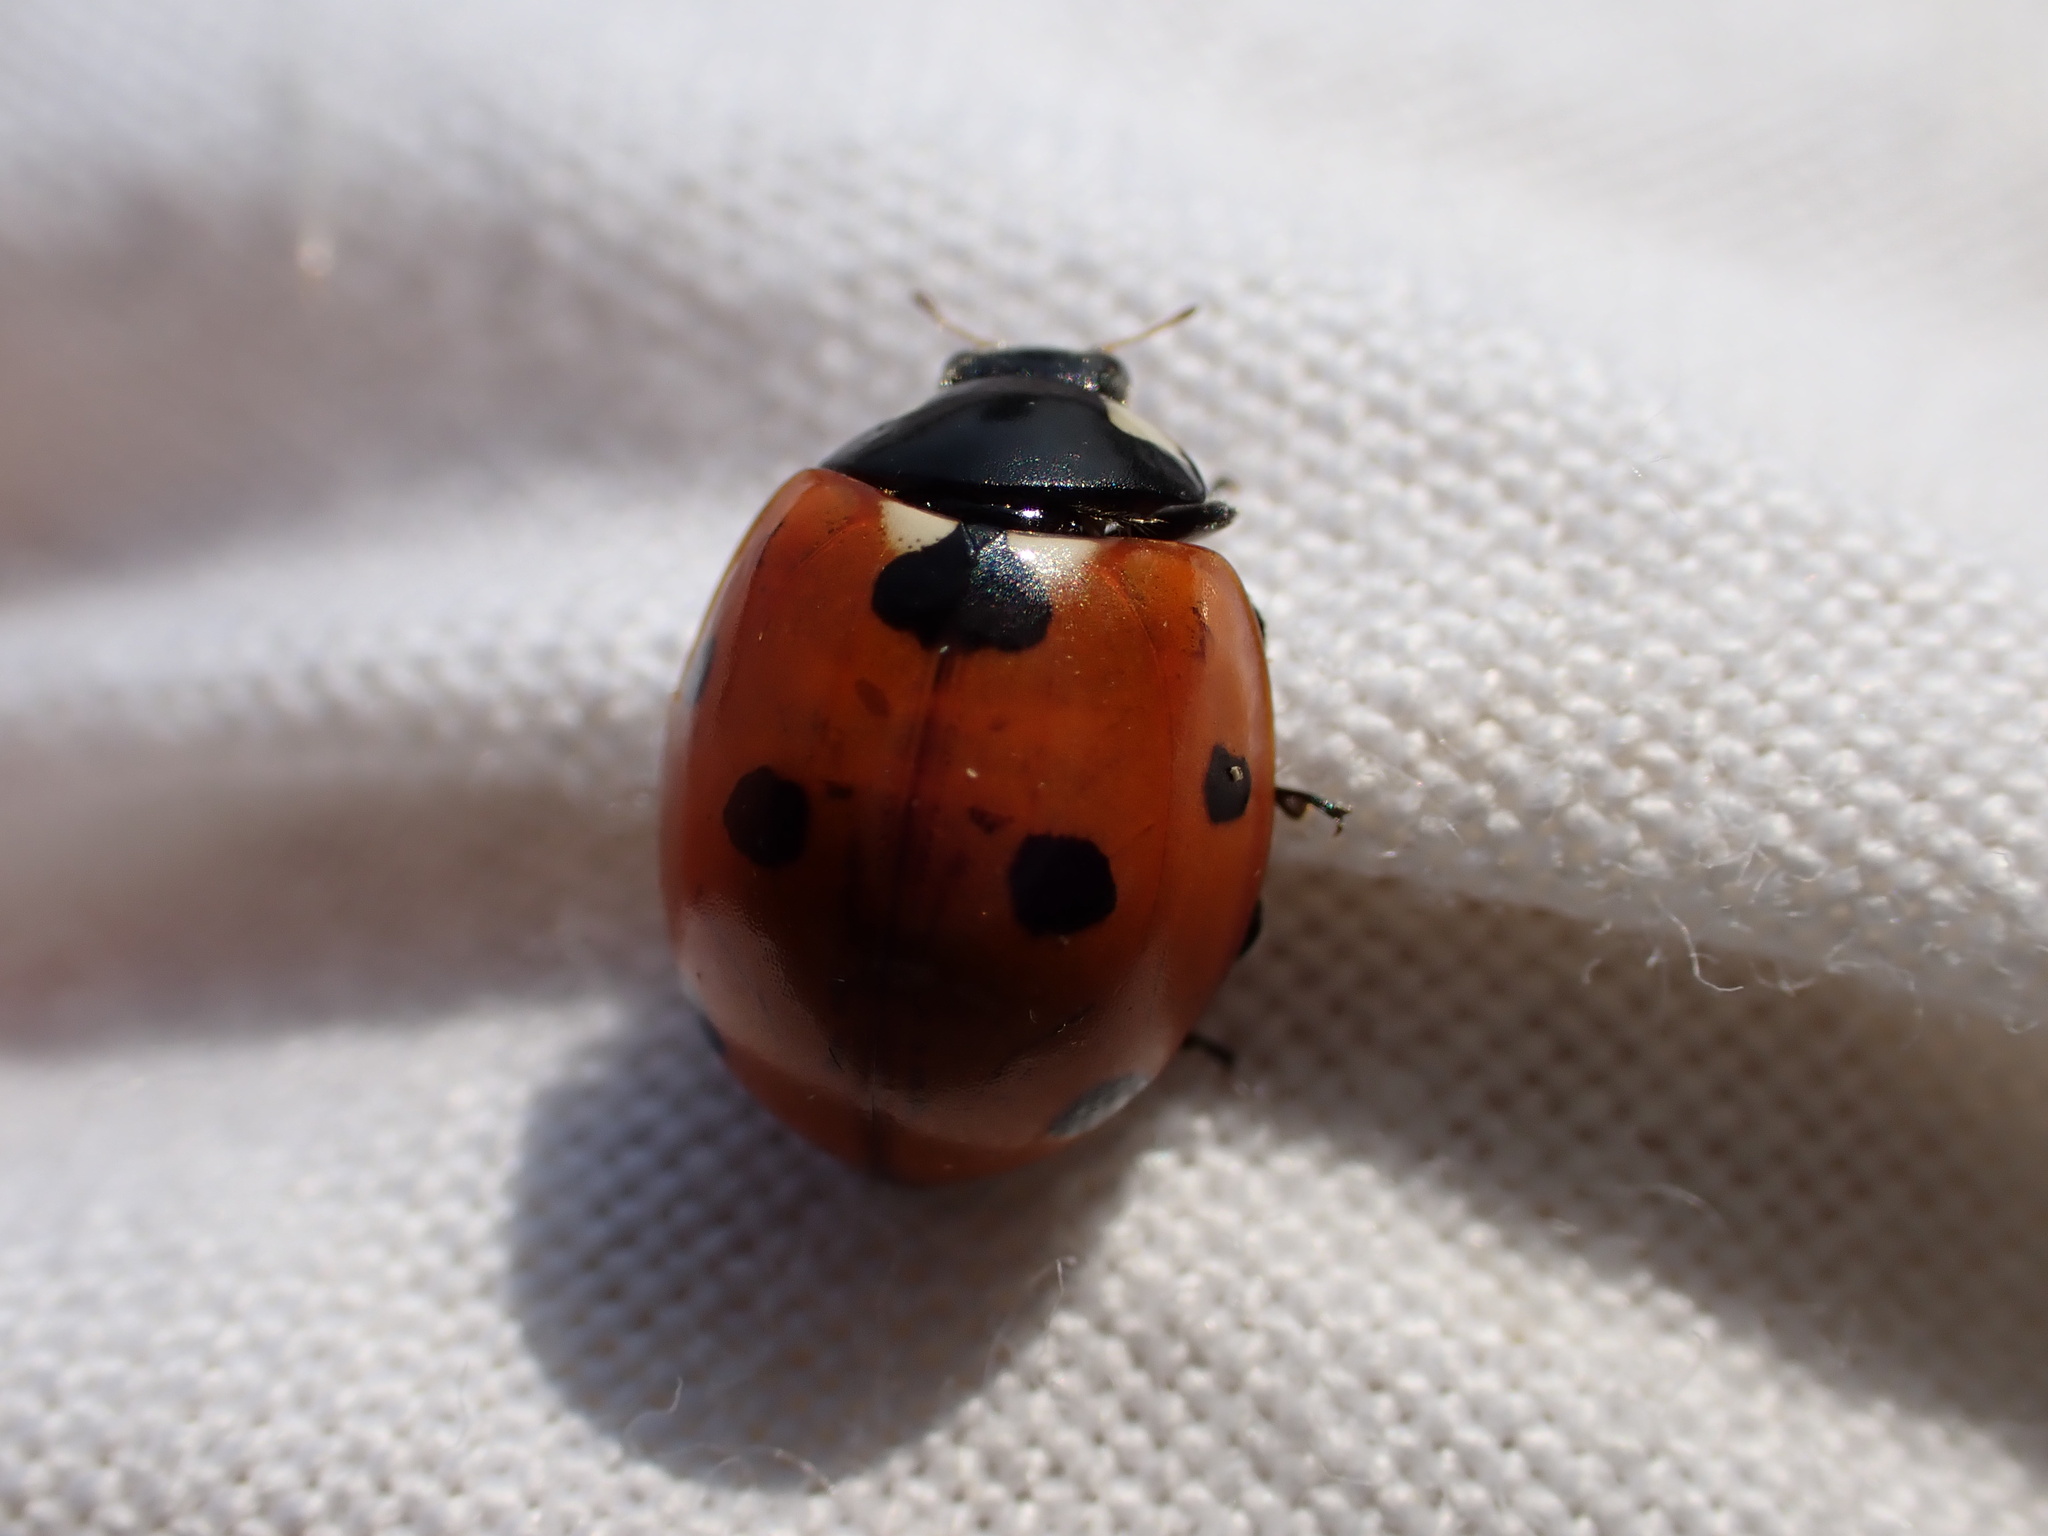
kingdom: Animalia
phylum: Arthropoda
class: Insecta
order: Coleoptera
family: Coccinellidae
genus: Coccinella
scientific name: Coccinella septempunctata
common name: Sevenspotted lady beetle
